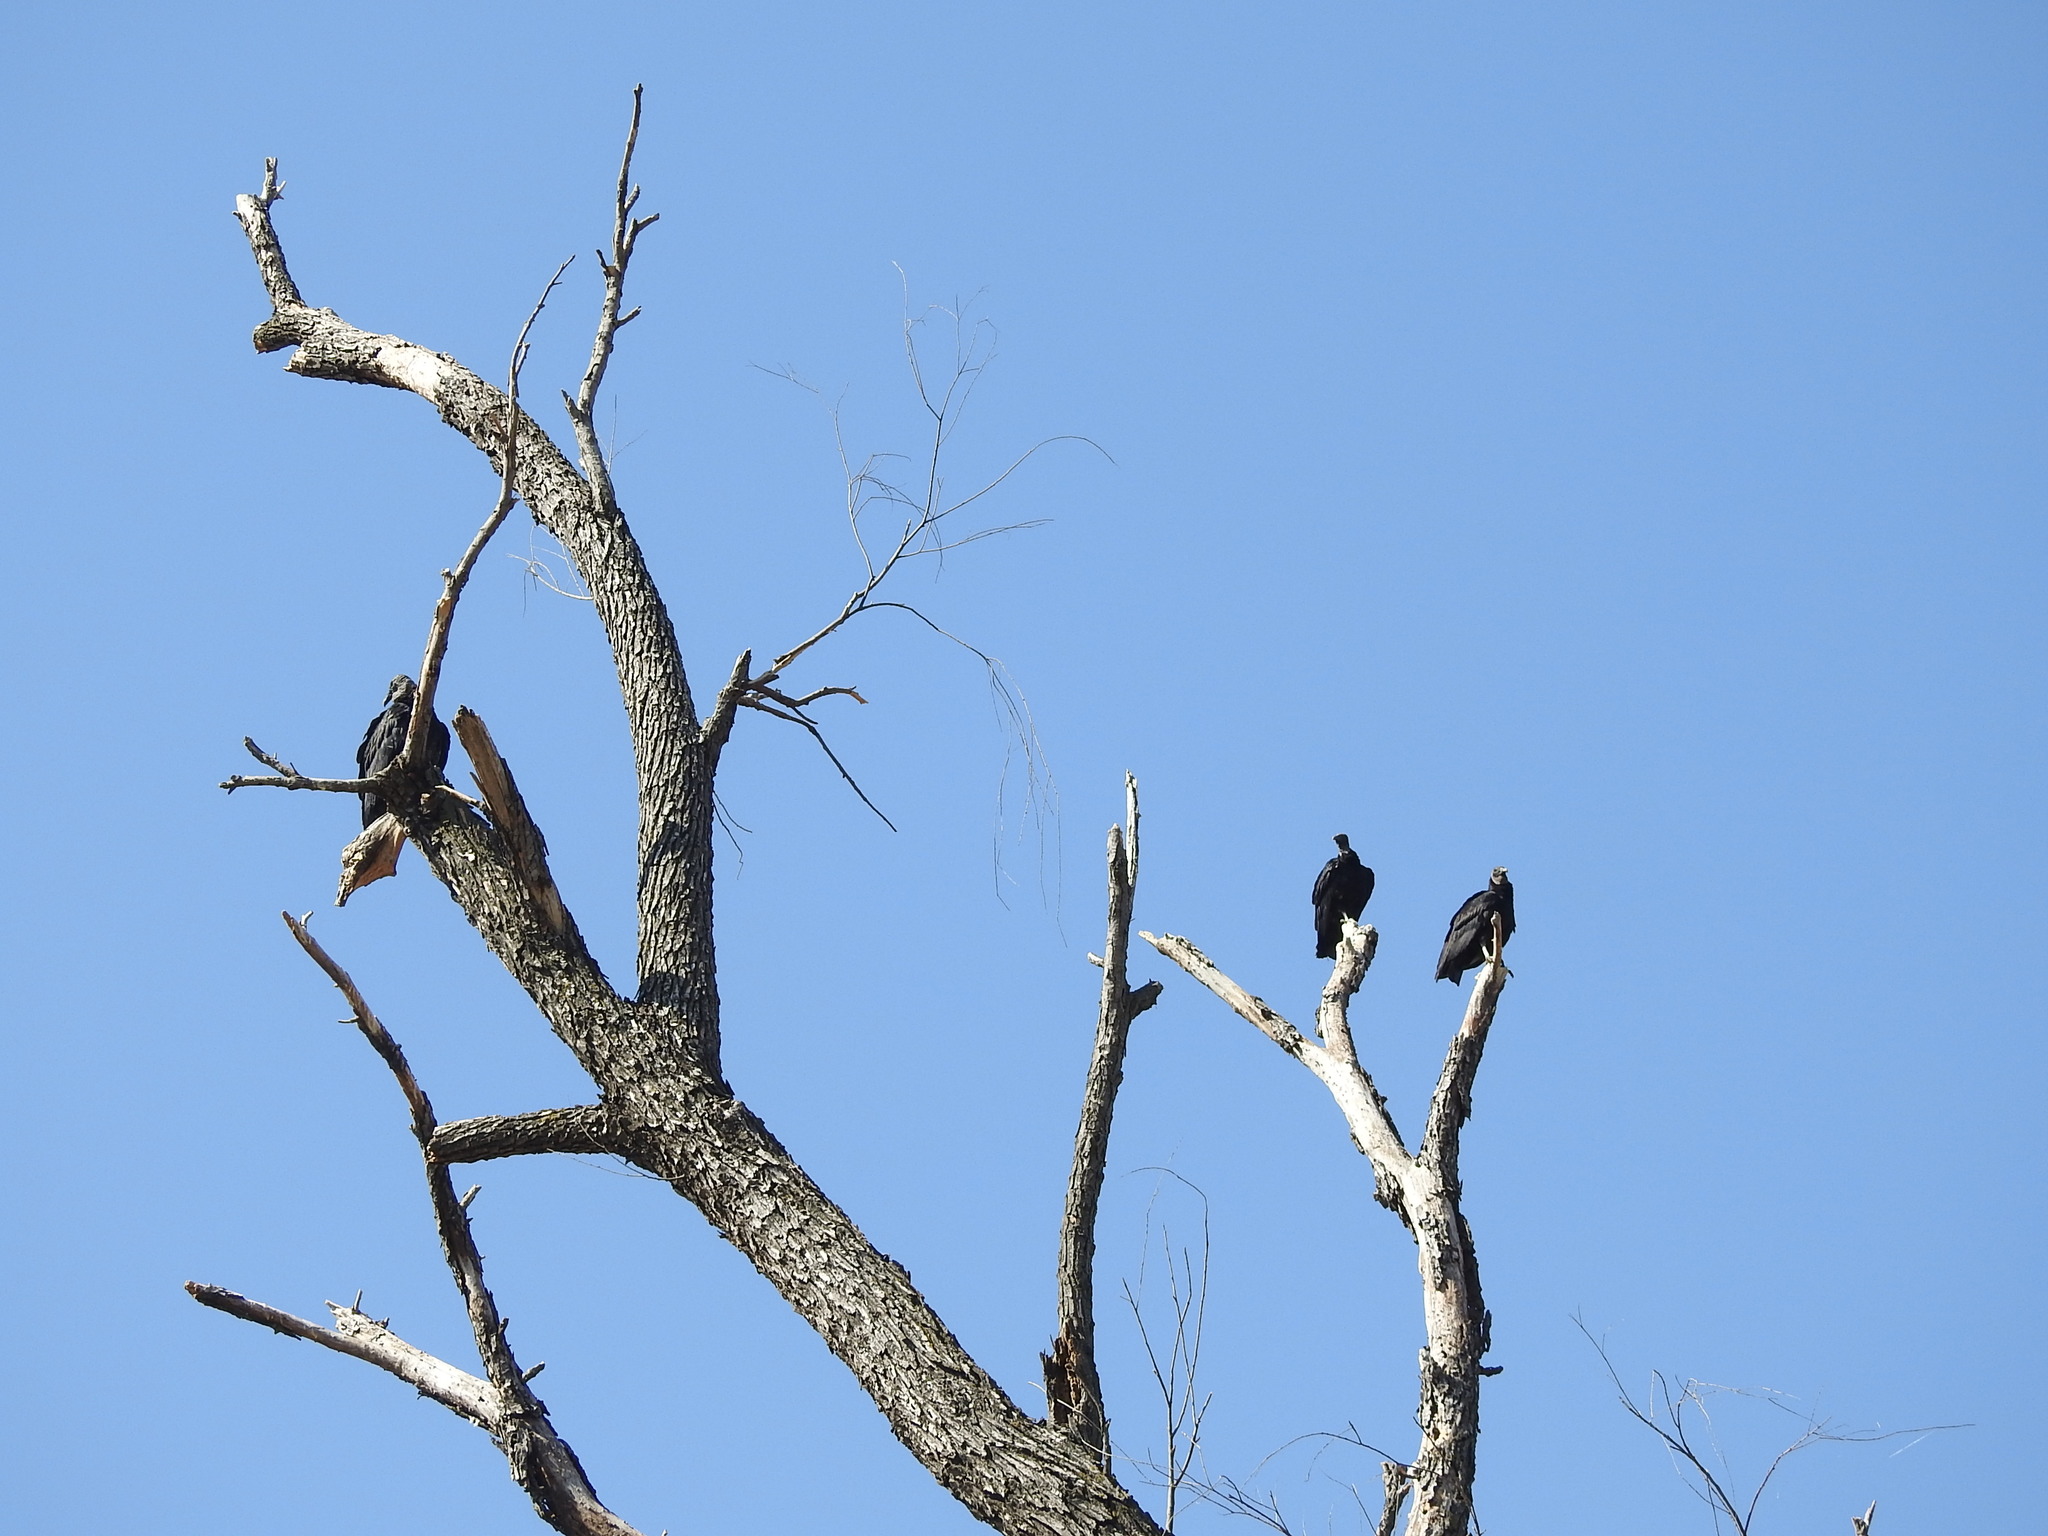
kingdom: Animalia
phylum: Chordata
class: Aves
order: Accipitriformes
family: Cathartidae
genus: Coragyps
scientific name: Coragyps atratus
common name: Black vulture
